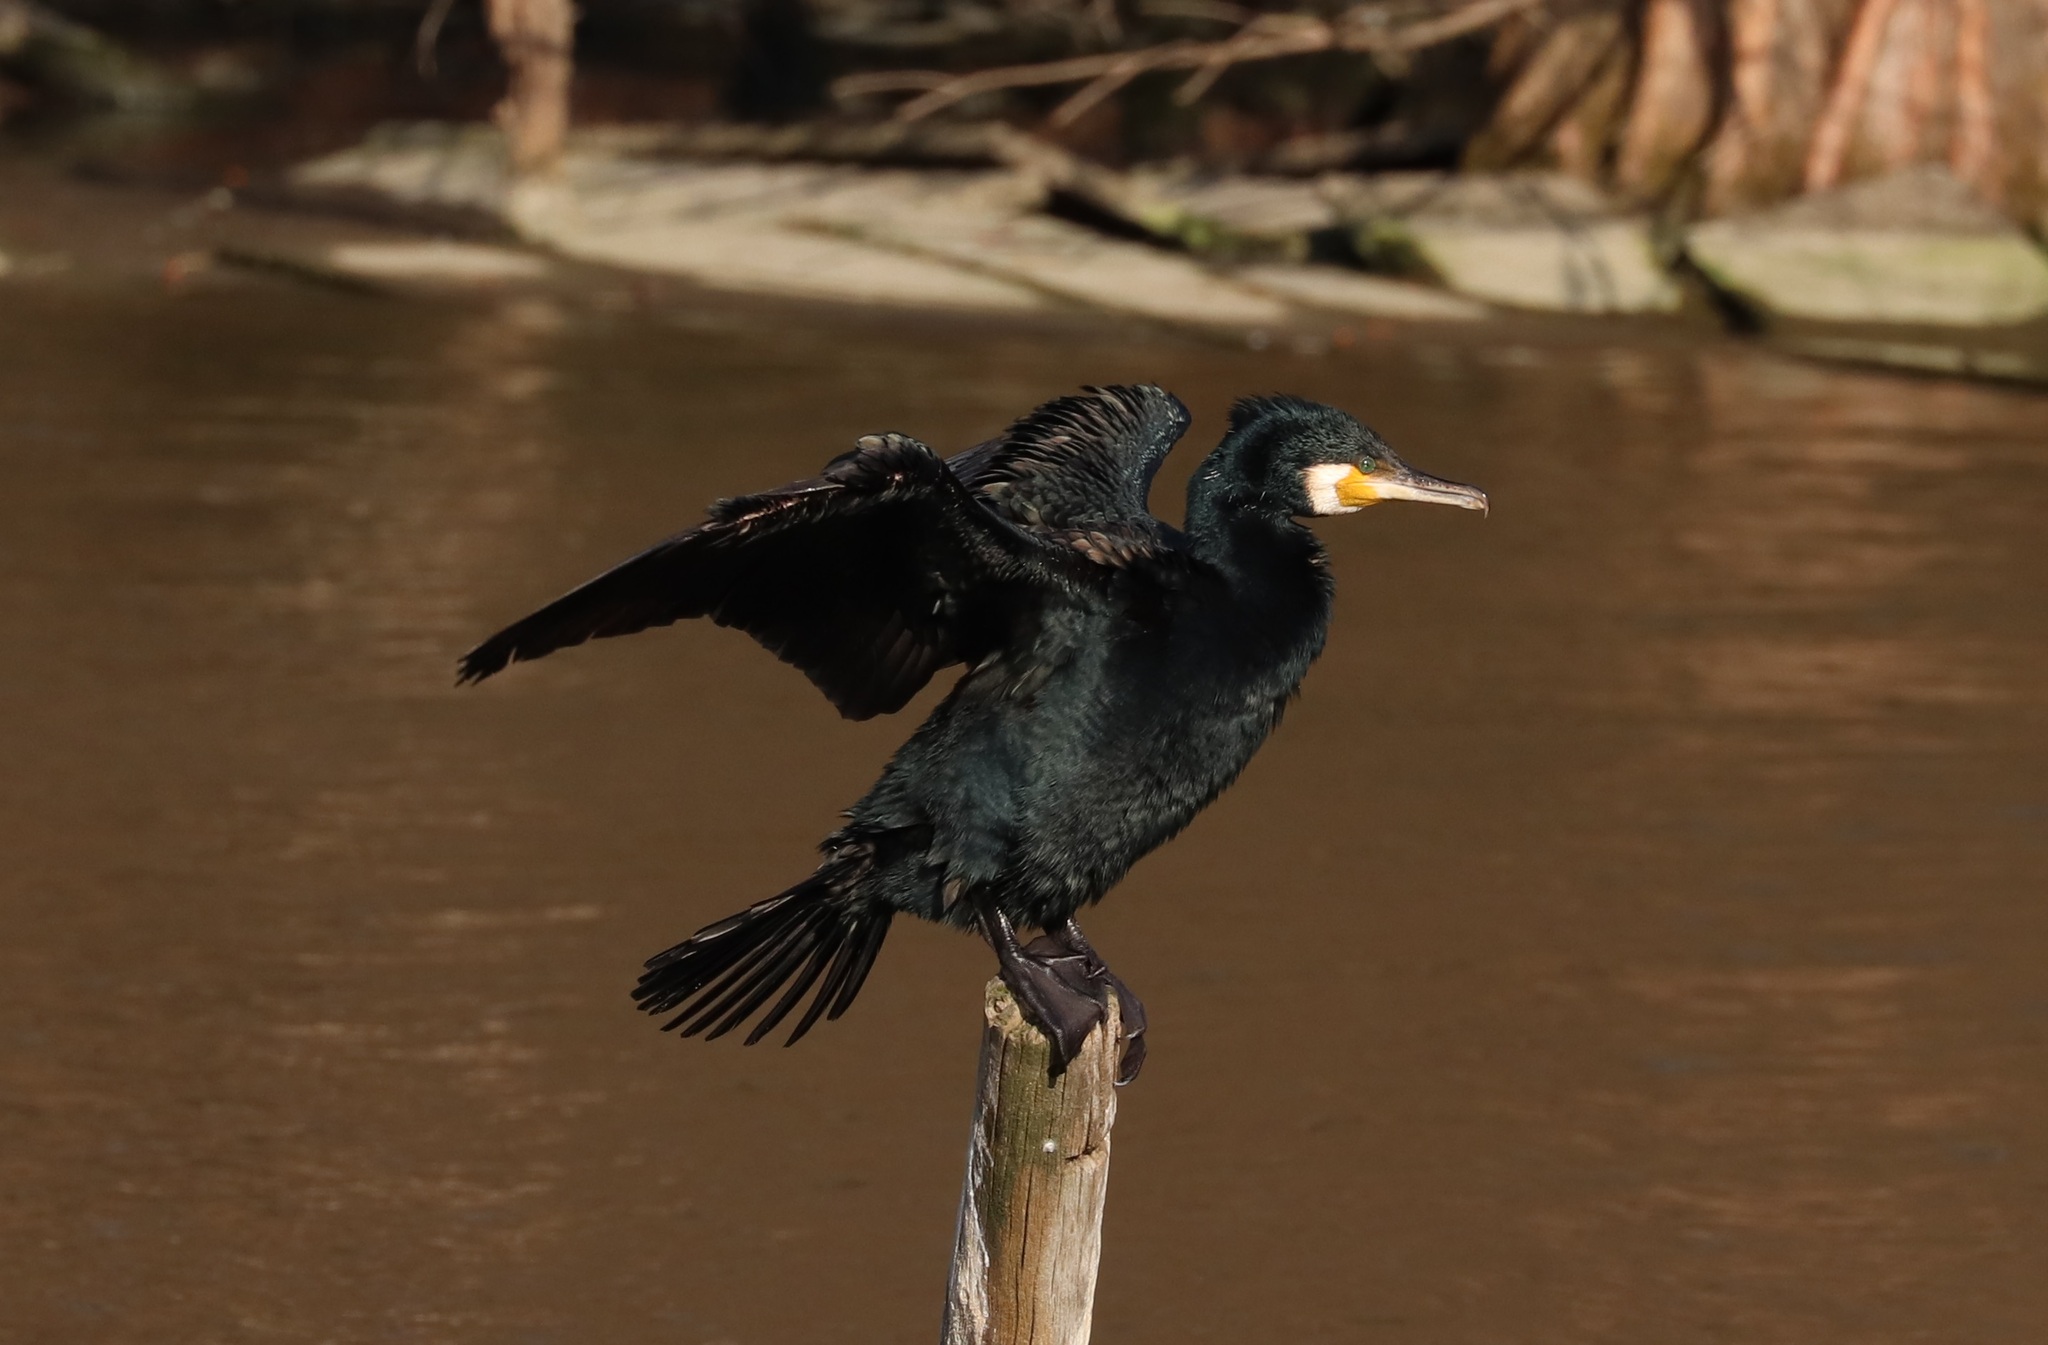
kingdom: Animalia
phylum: Chordata
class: Aves
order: Suliformes
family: Phalacrocoracidae
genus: Phalacrocorax
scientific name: Phalacrocorax carbo
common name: Great cormorant
